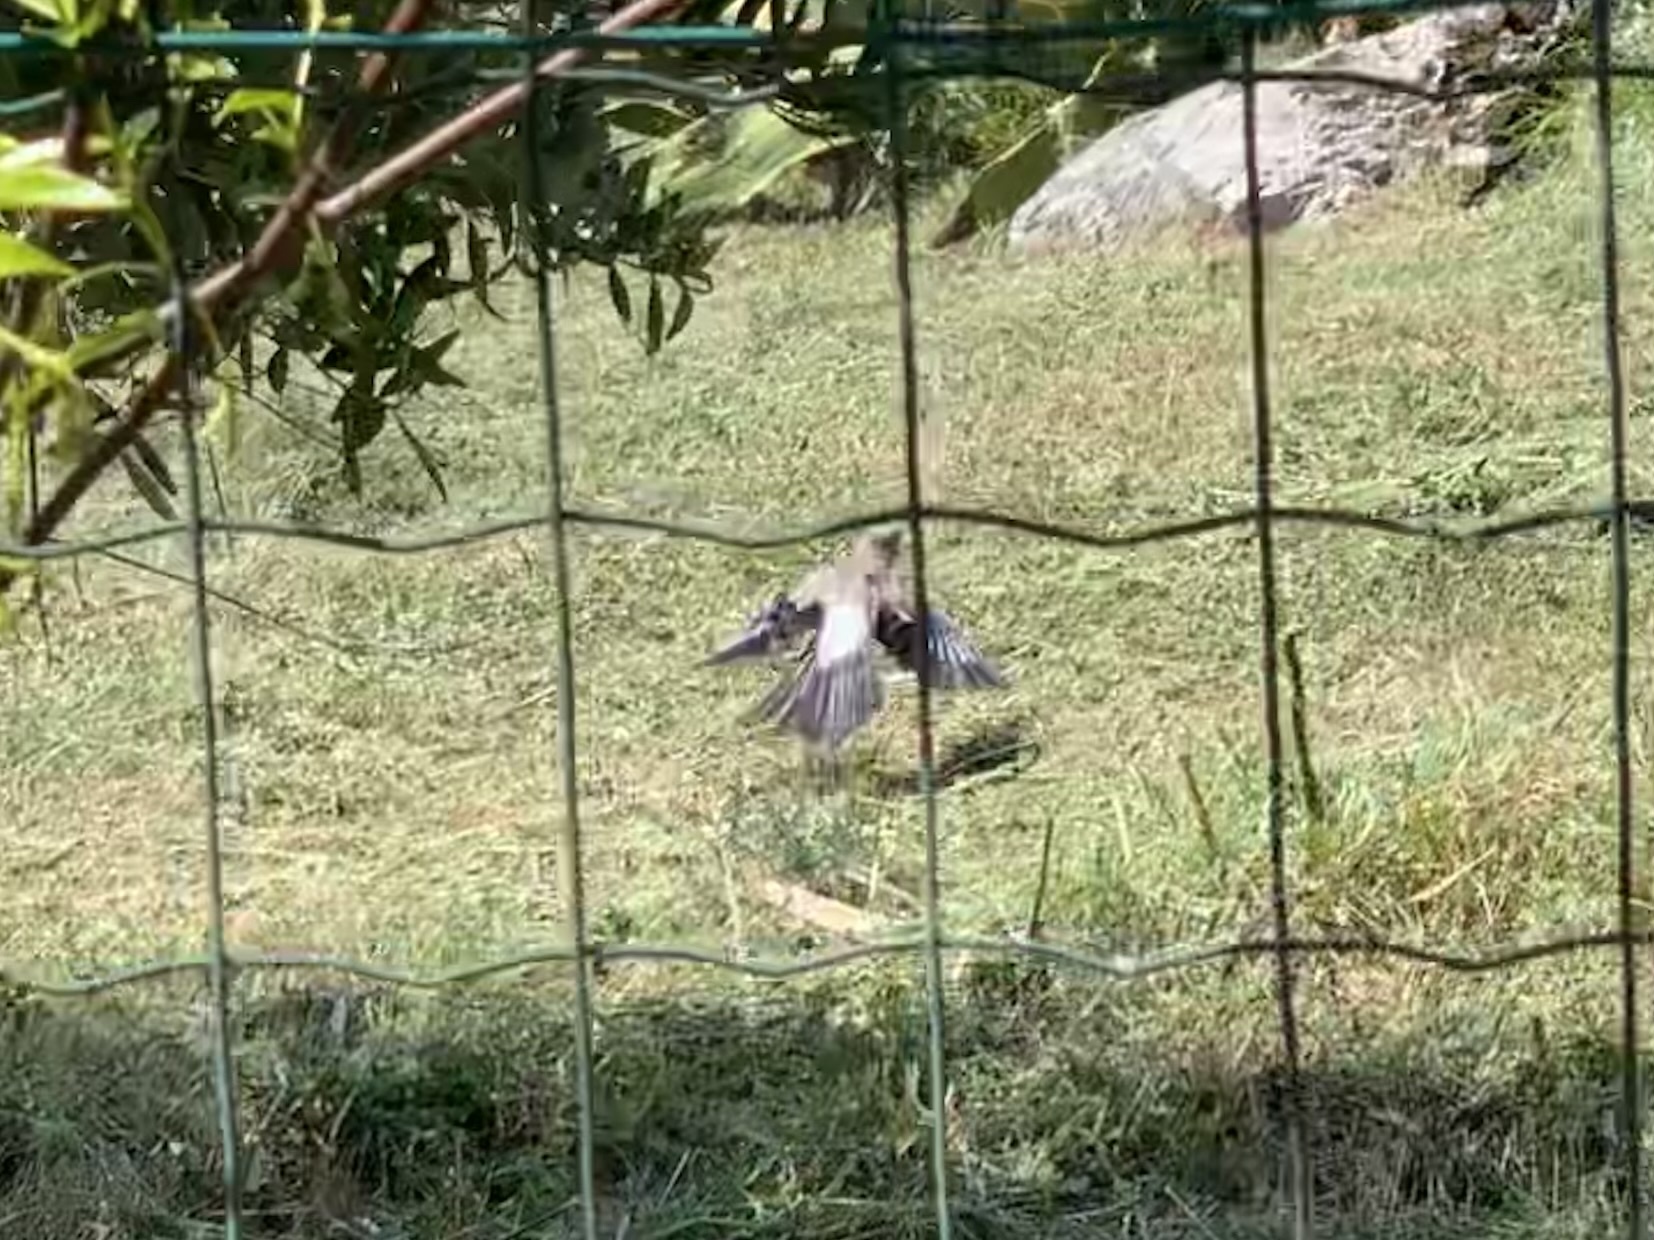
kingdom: Animalia
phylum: Chordata
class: Aves
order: Passeriformes
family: Corvidae
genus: Garrulus
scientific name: Garrulus glandarius
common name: Eurasian jay
